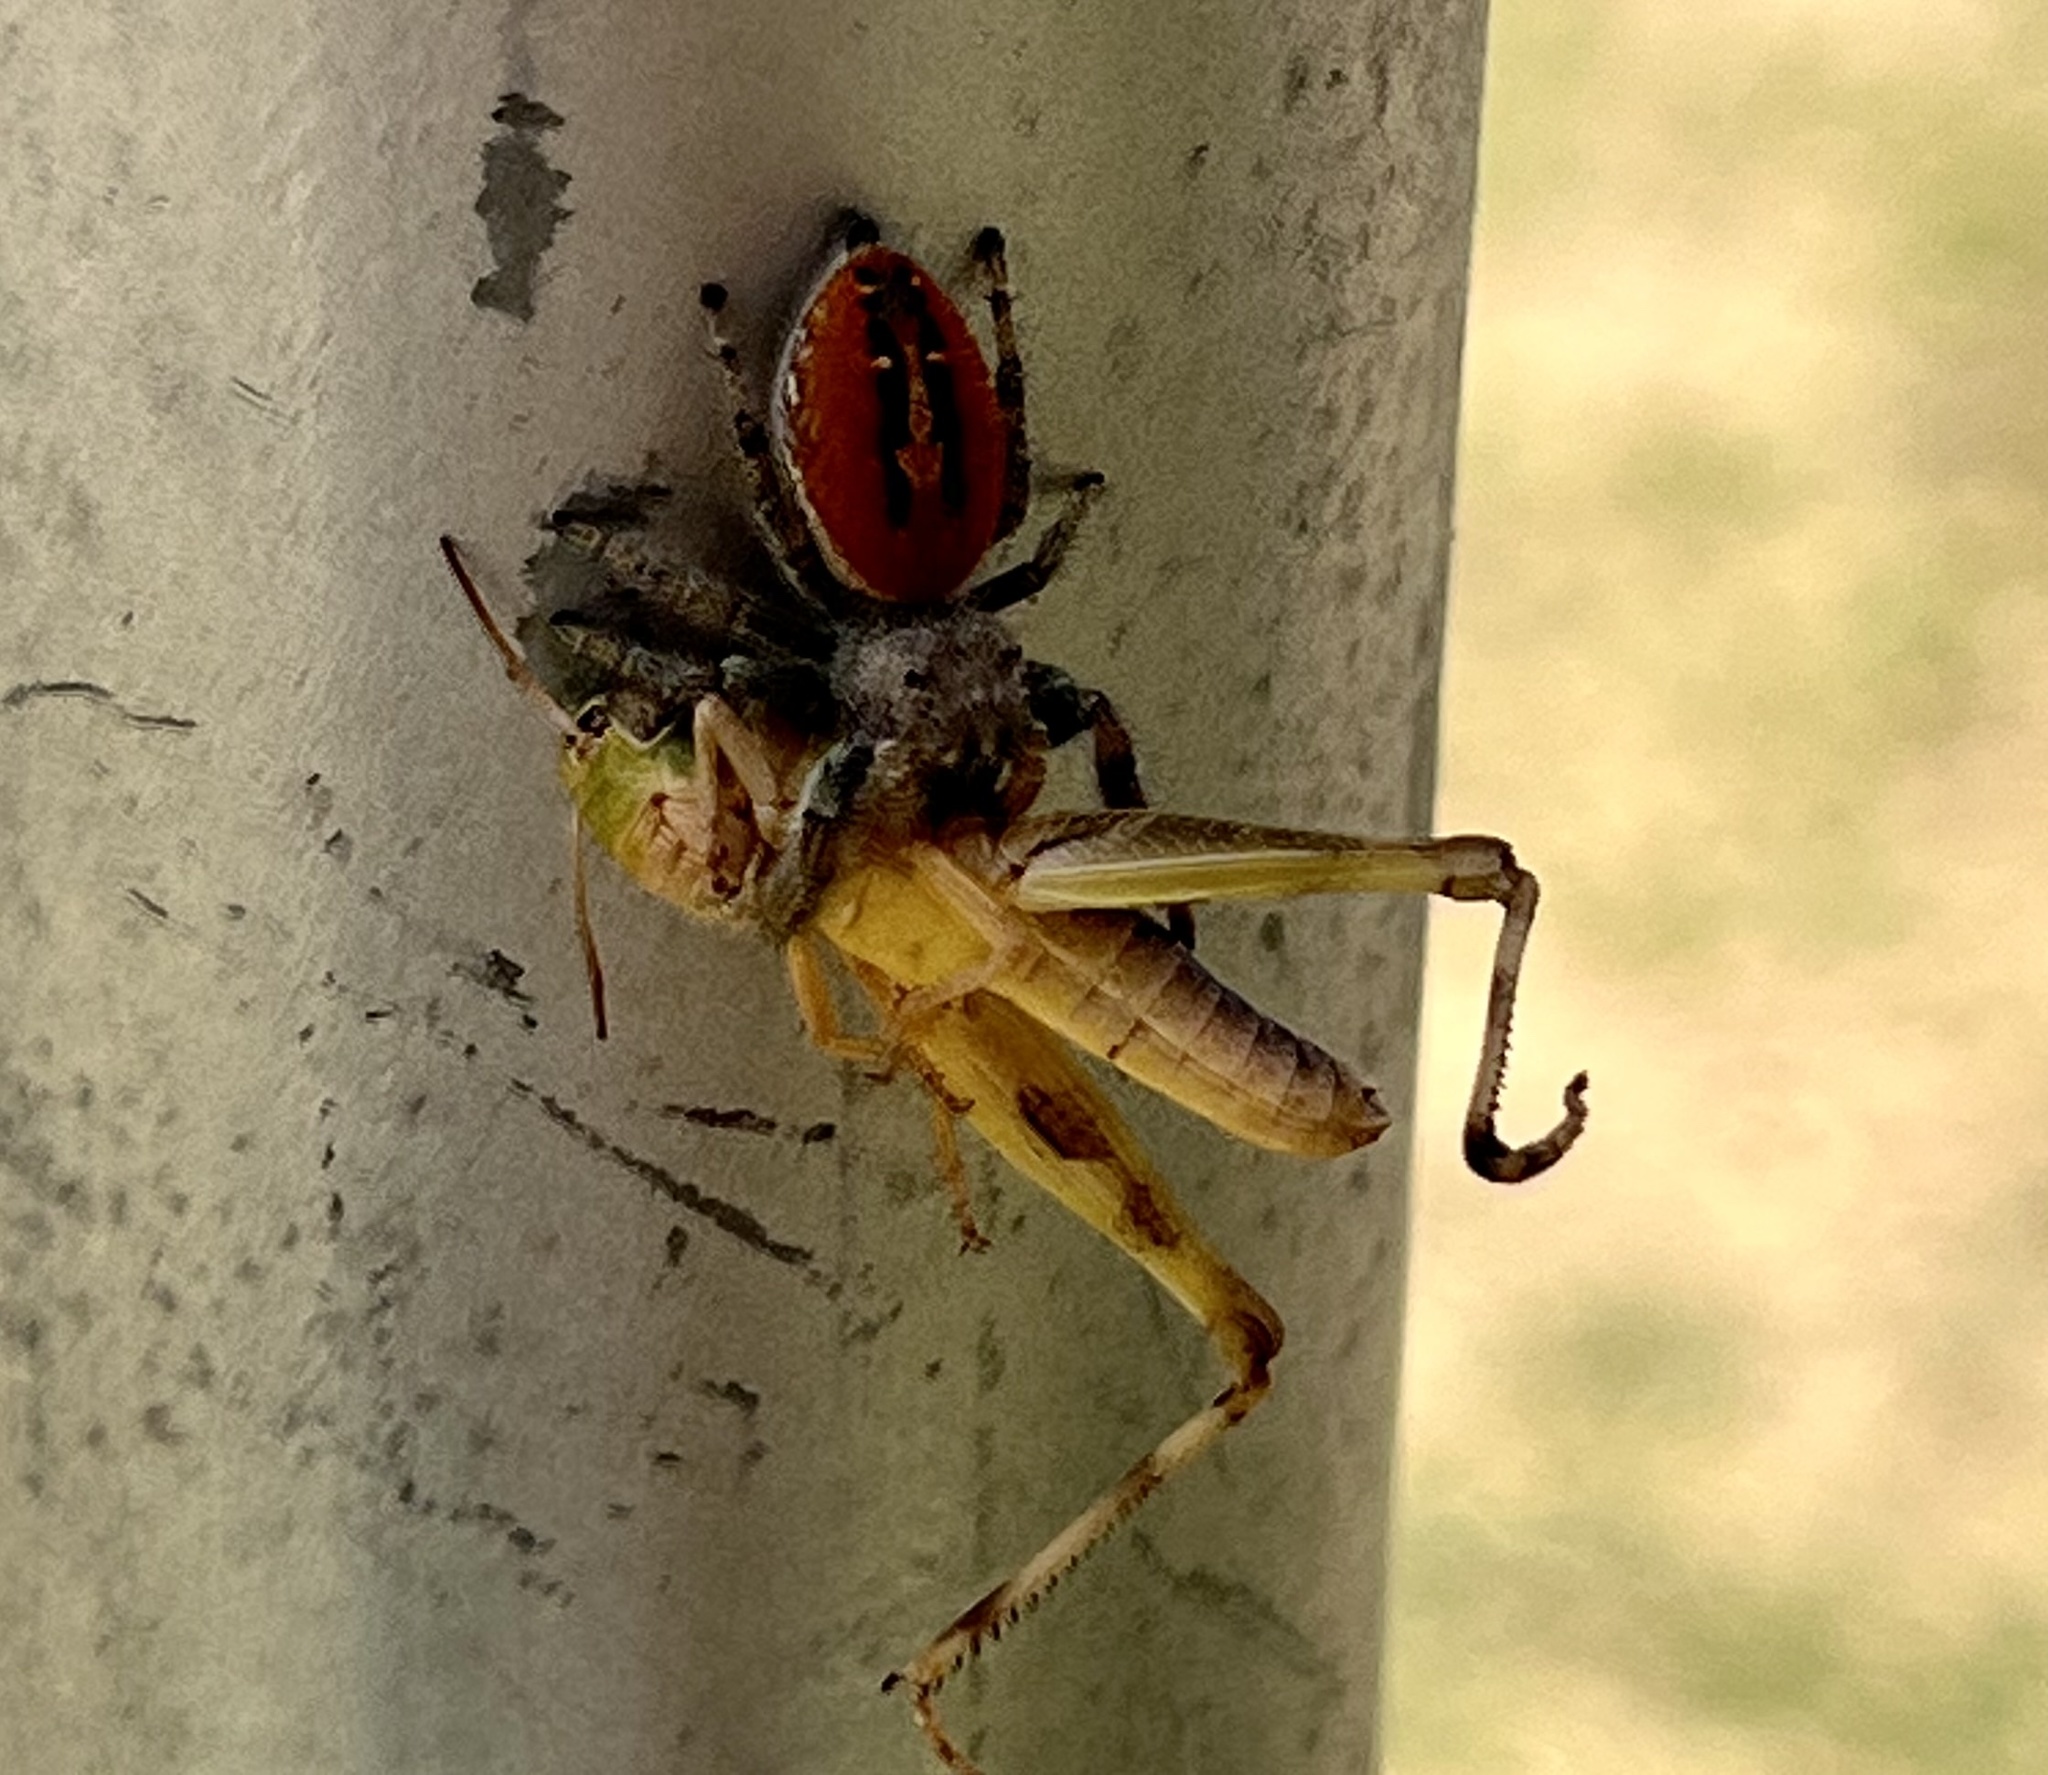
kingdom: Animalia
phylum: Arthropoda
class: Arachnida
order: Araneae
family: Salticidae
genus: Phidippus
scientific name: Phidippus texanus
